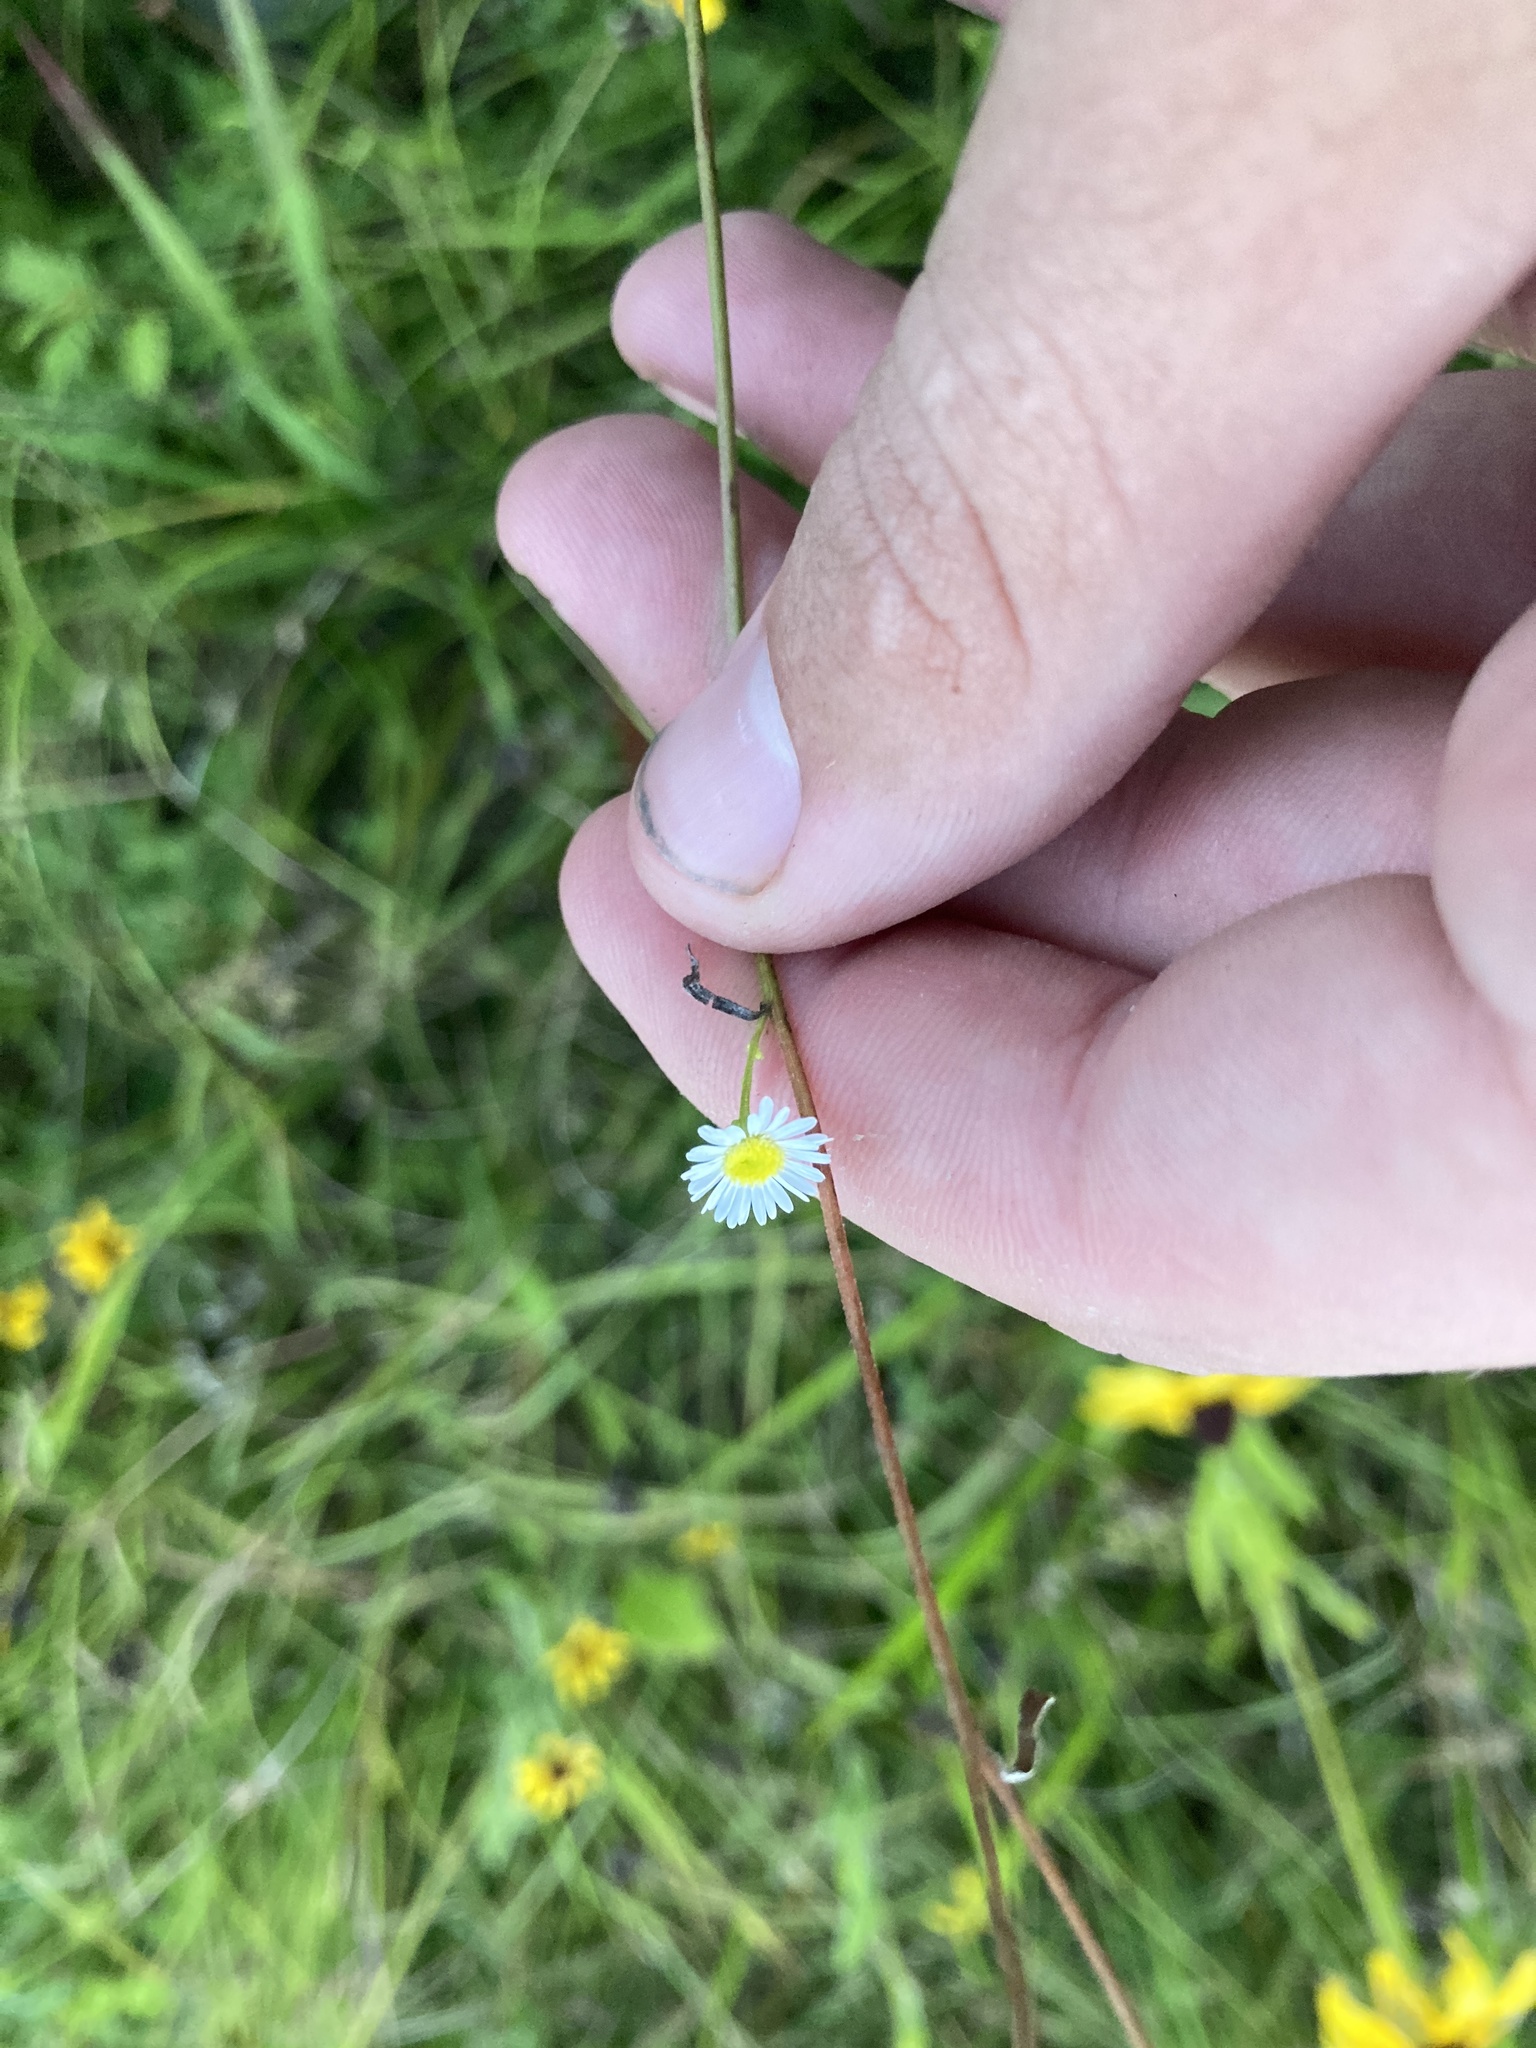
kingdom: Plantae
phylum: Tracheophyta
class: Magnoliopsida
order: Asterales
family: Asteraceae
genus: Erigeron
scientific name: Erigeron strigosus
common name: Common eastern fleabane
